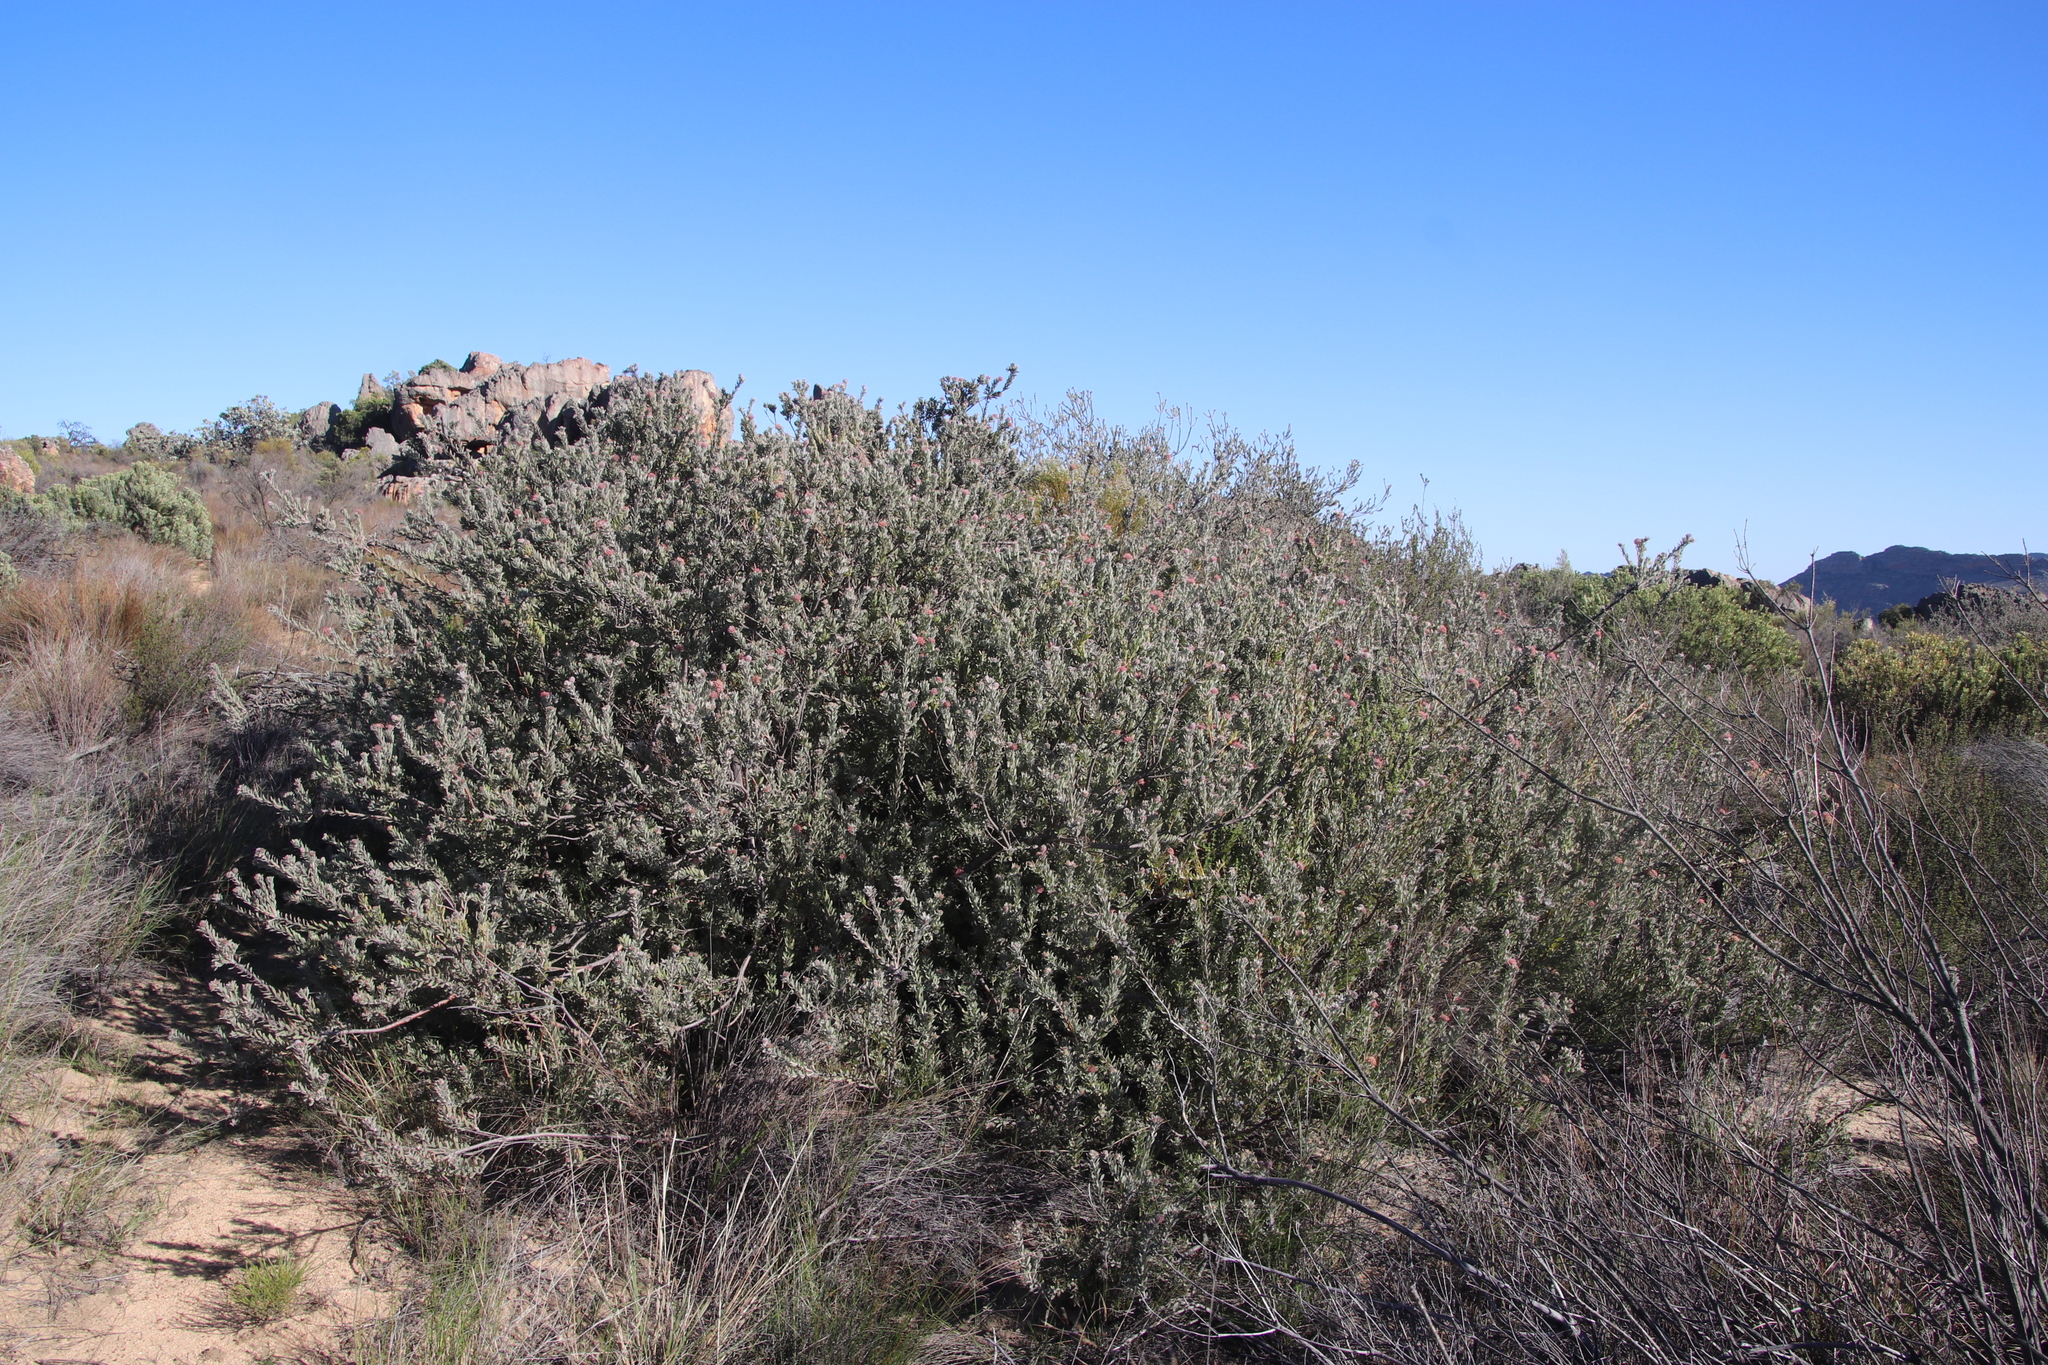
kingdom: Plantae
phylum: Tracheophyta
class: Magnoliopsida
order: Proteales
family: Proteaceae
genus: Leucospermum
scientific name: Leucospermum calligerum
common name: Arid pincushion
